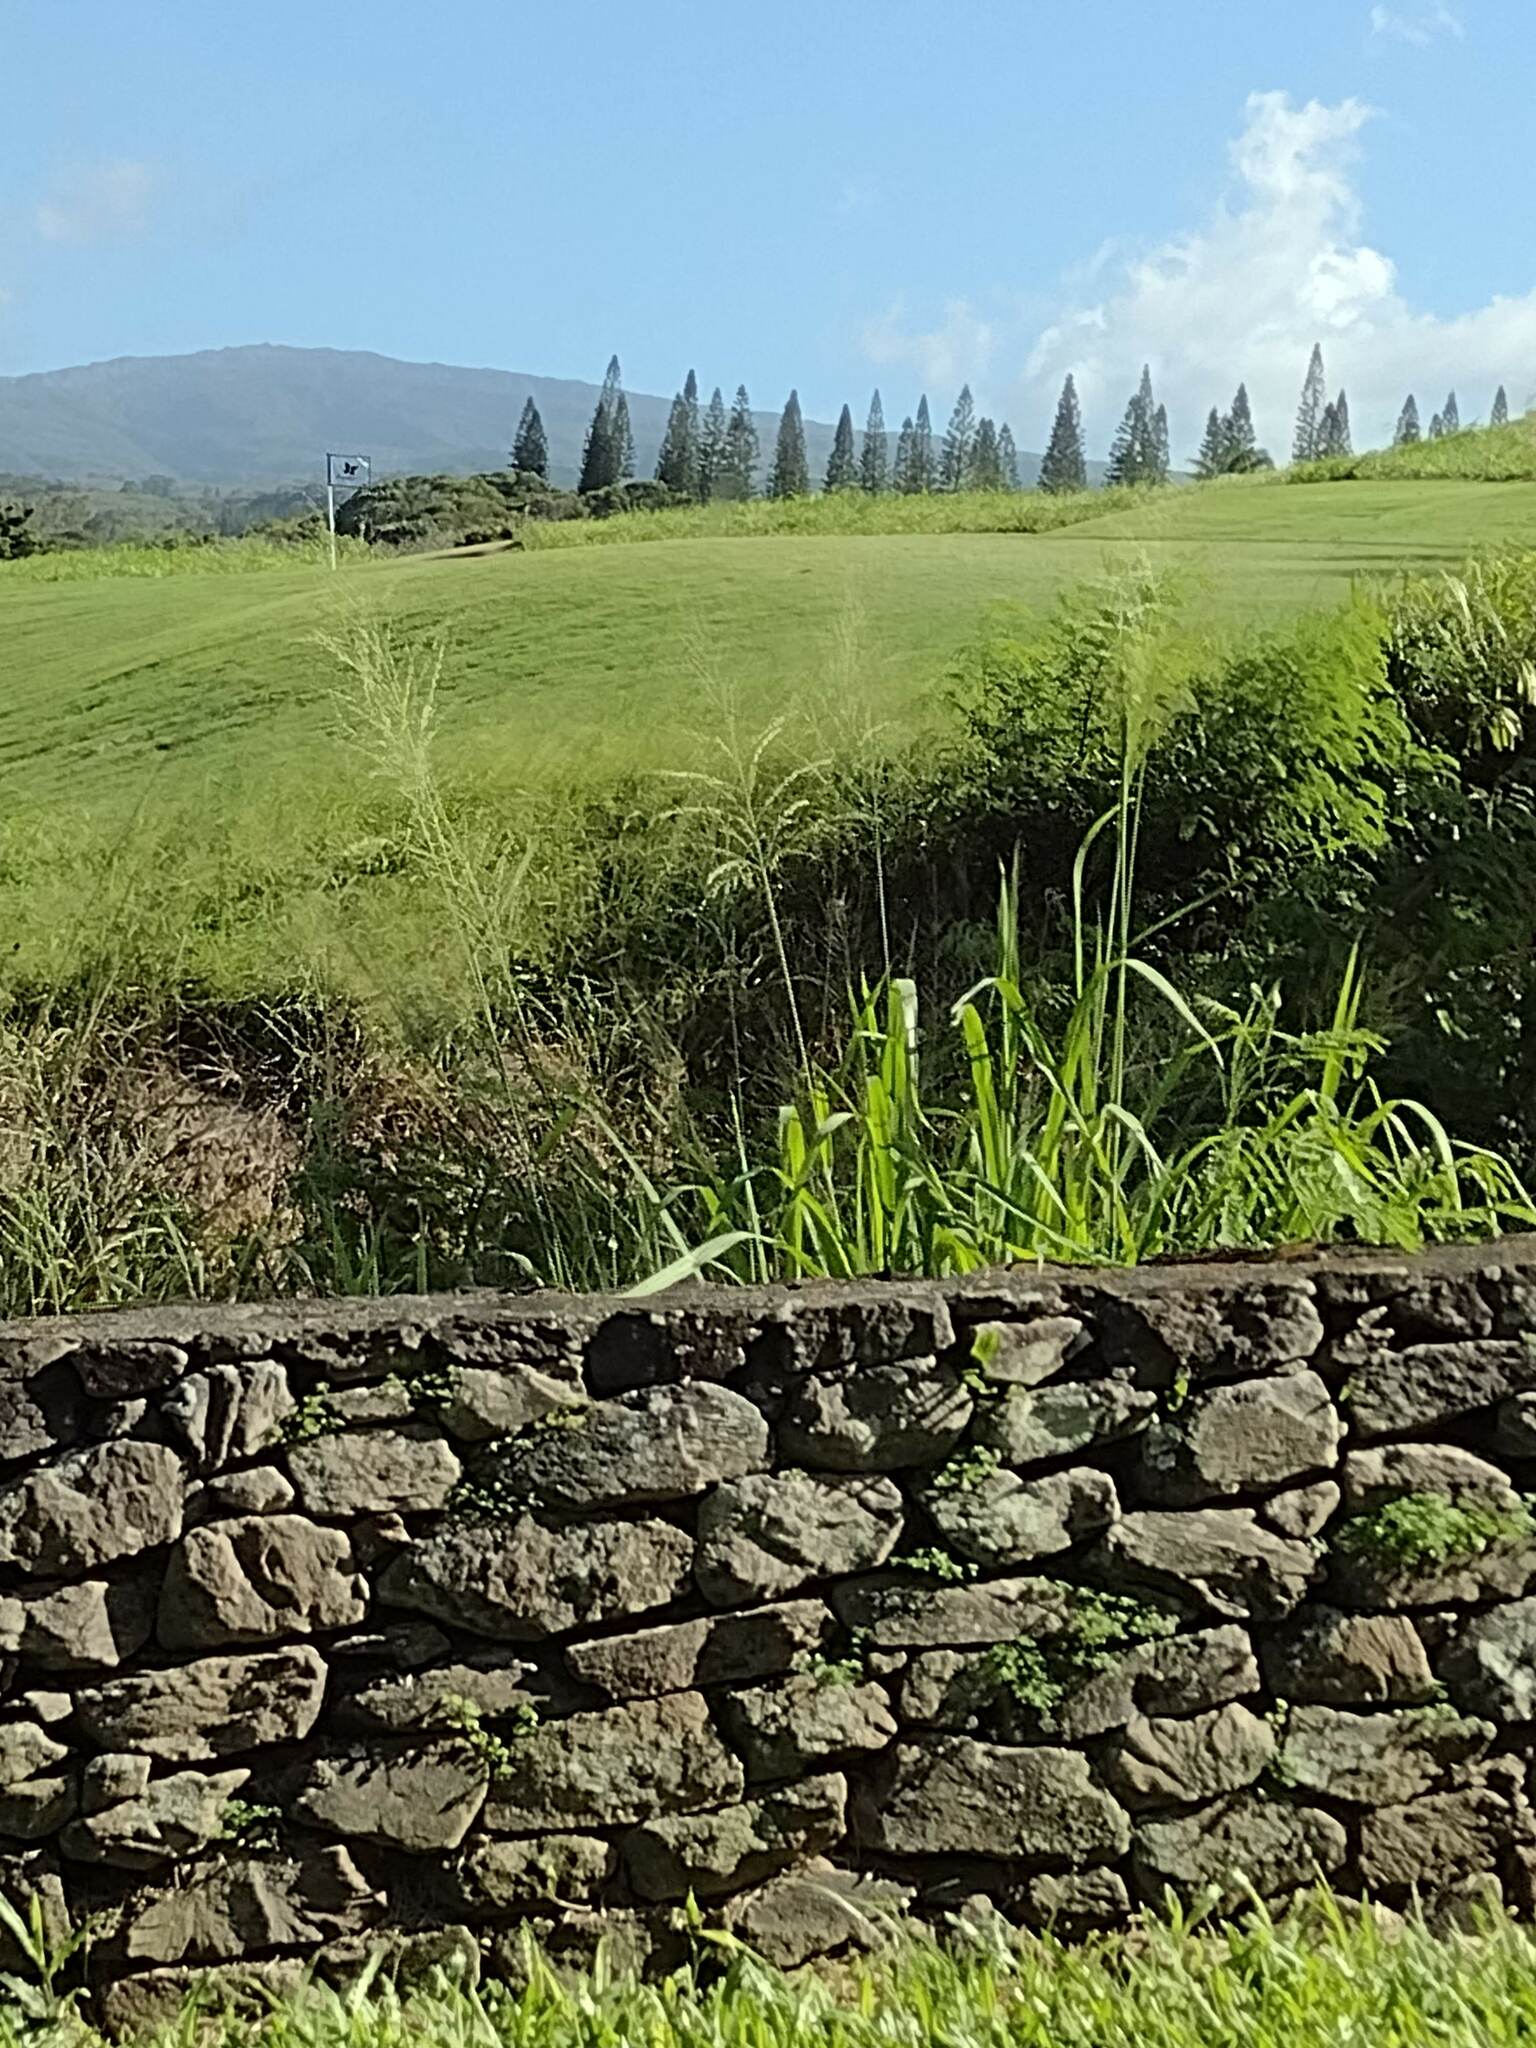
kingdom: Plantae
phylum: Tracheophyta
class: Liliopsida
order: Poales
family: Poaceae
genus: Megathyrsus
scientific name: Megathyrsus maximus
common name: Guineagrass
